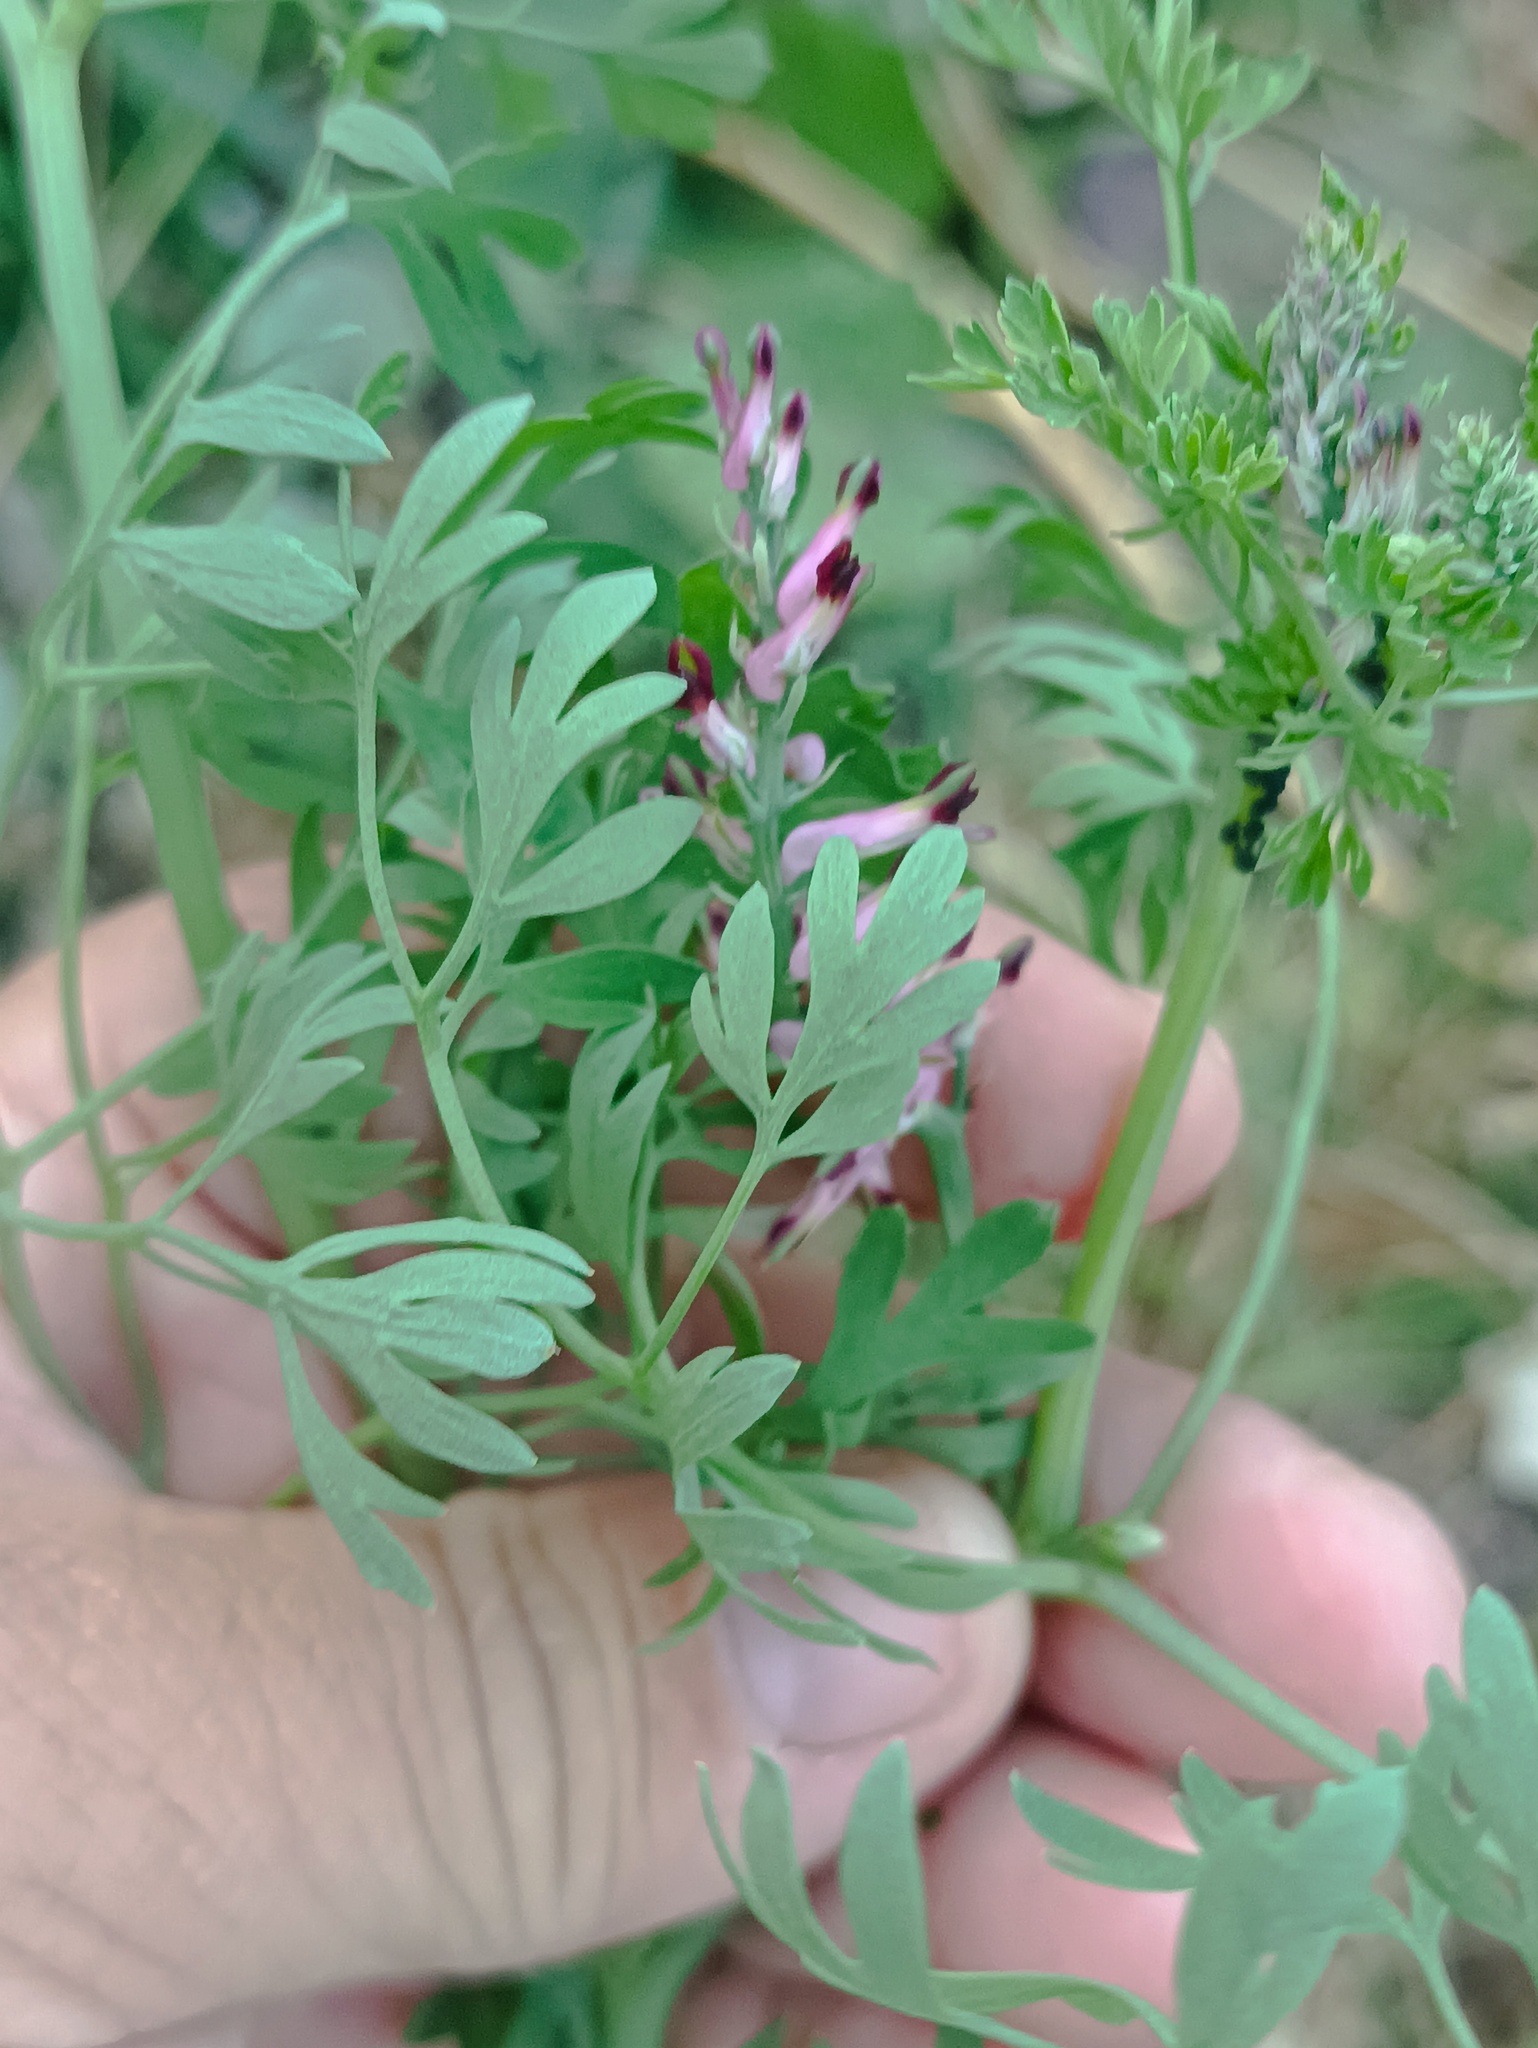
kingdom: Plantae
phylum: Tracheophyta
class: Magnoliopsida
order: Ranunculales
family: Papaveraceae
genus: Fumaria
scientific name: Fumaria officinalis
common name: Common fumitory
